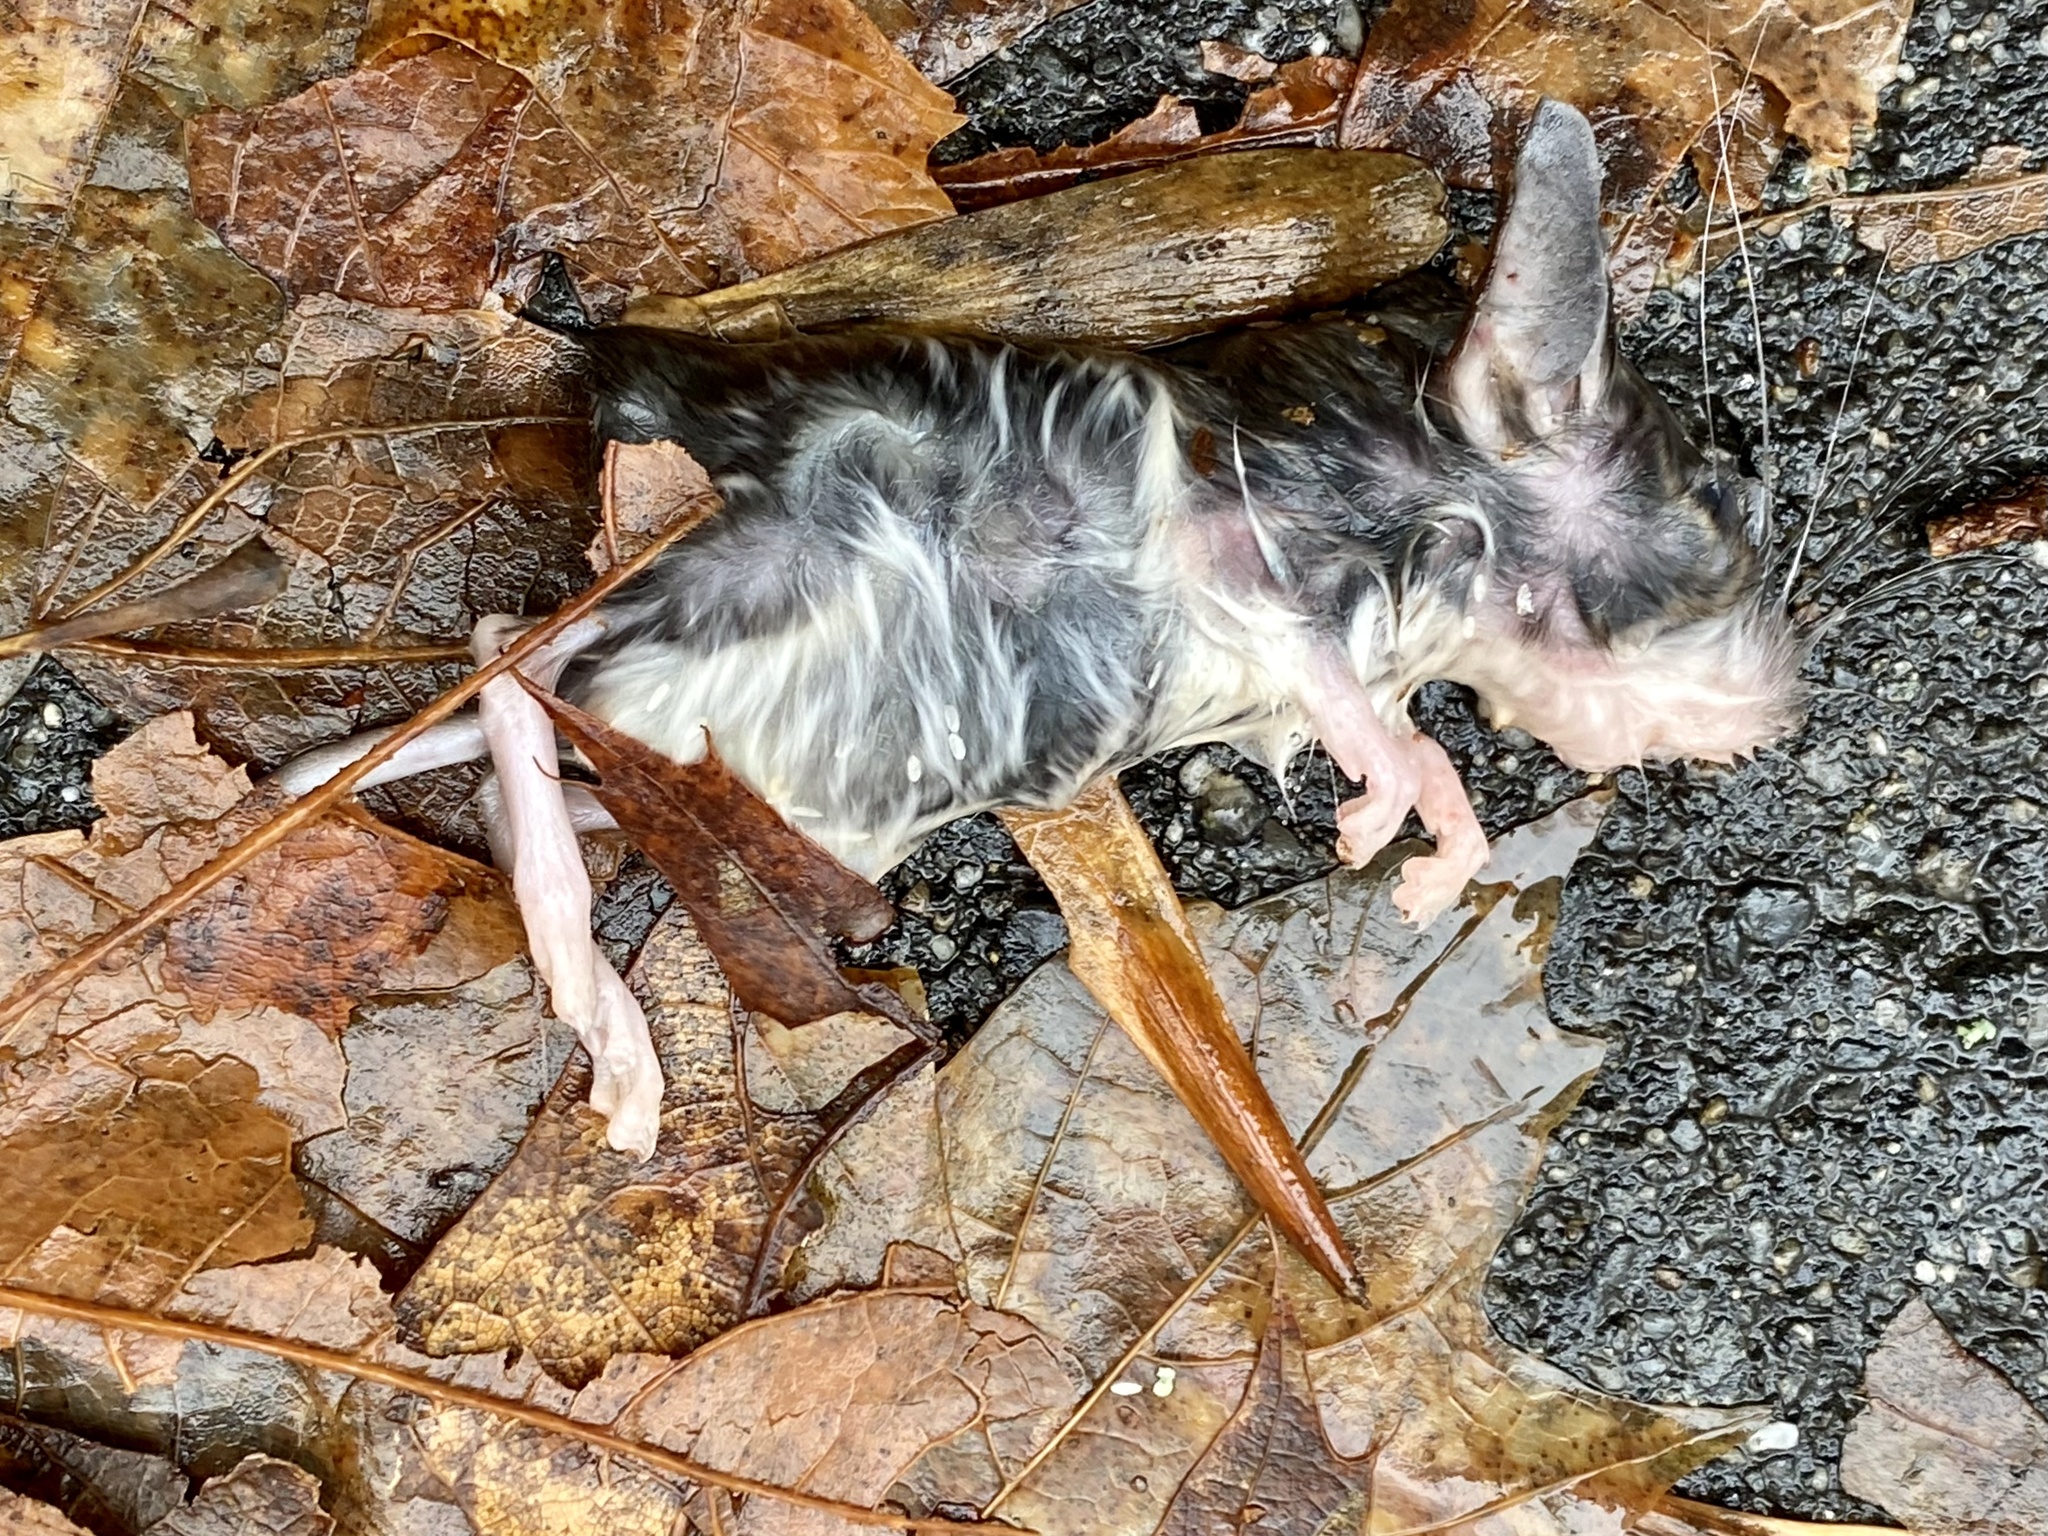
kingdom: Animalia
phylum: Chordata
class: Mammalia
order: Rodentia
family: Cricetidae
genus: Peromyscus
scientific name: Peromyscus leucopus
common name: White-footed deermouse
